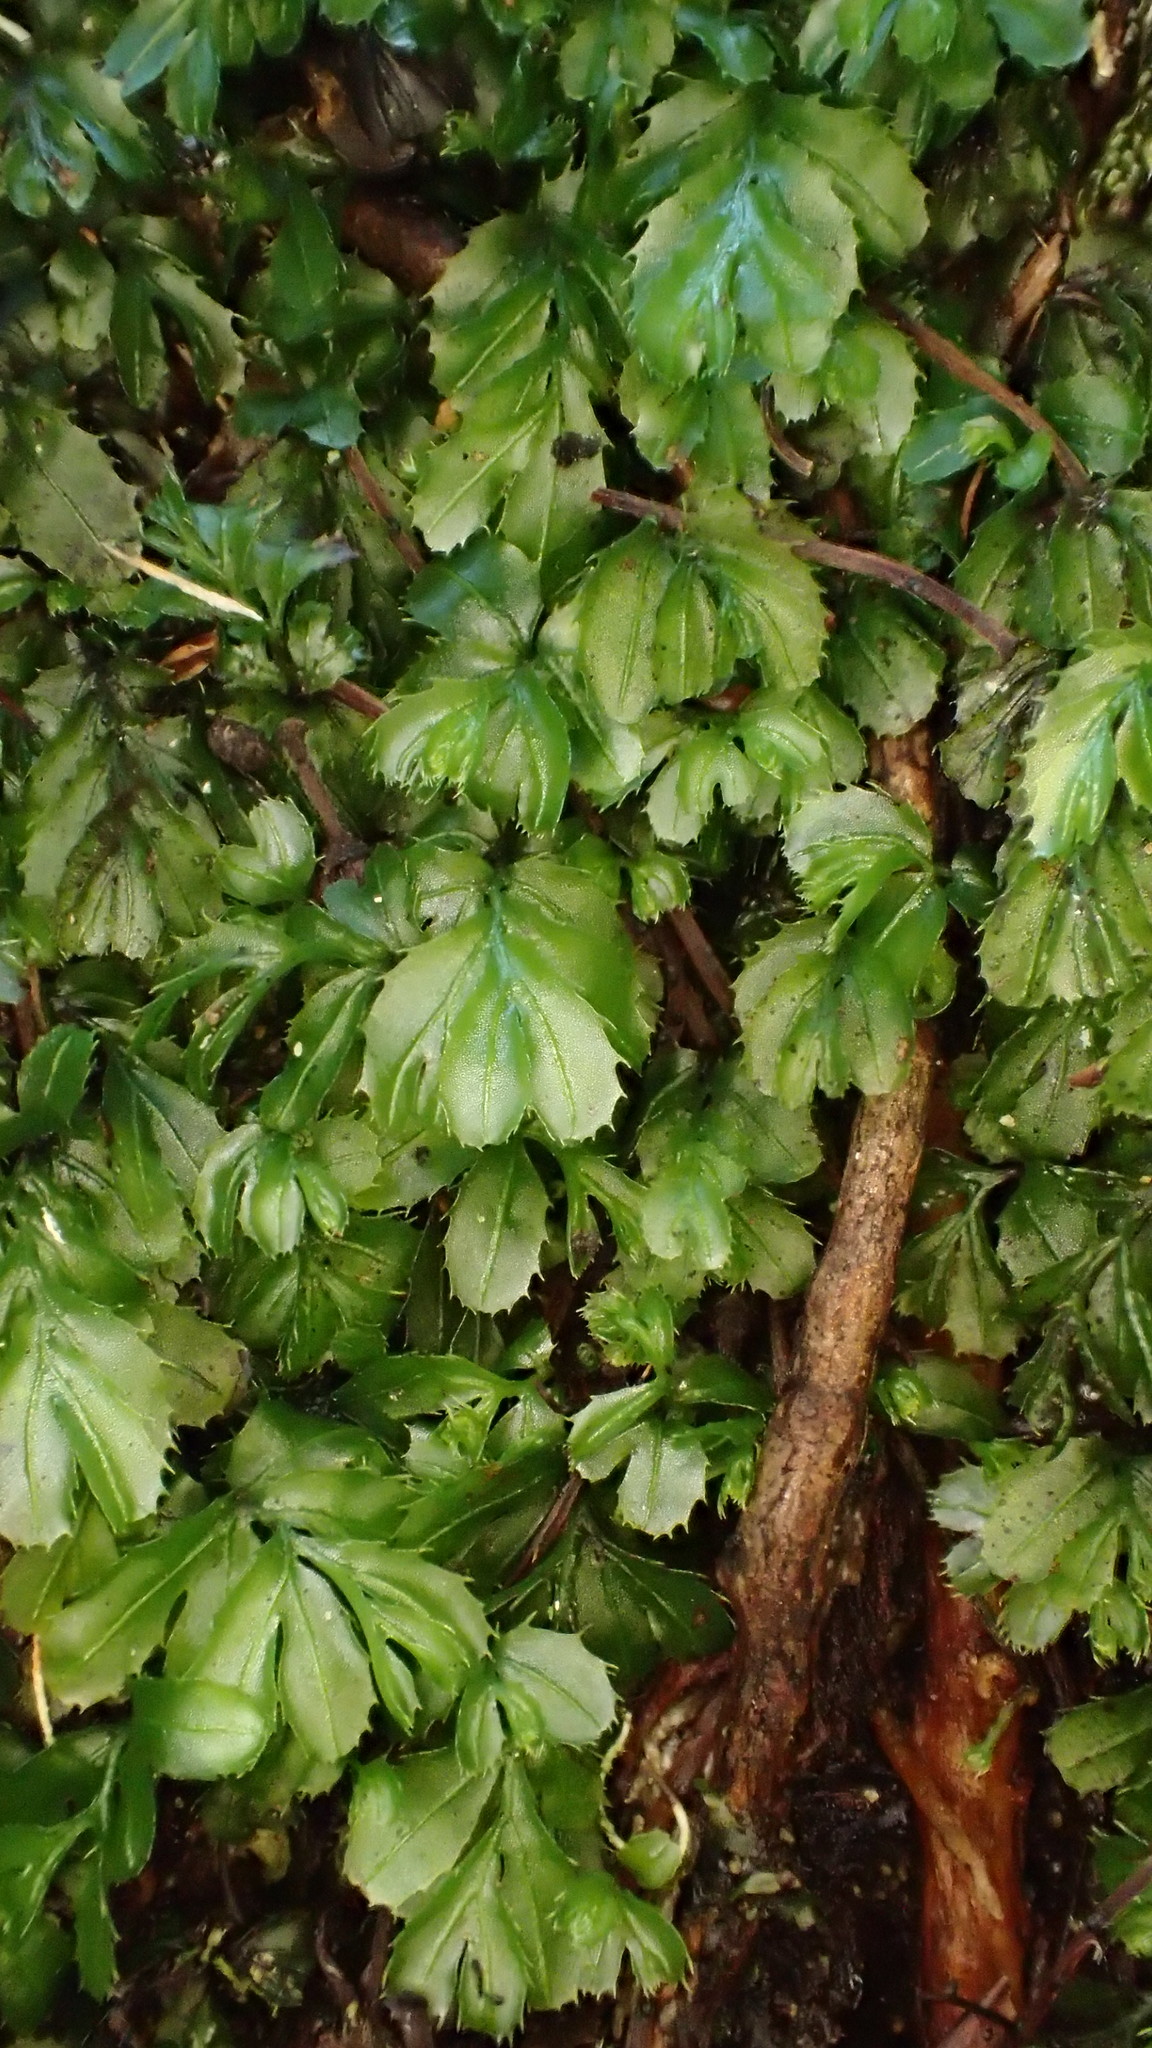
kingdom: Plantae
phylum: Tracheophyta
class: Polypodiopsida
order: Hymenophyllales
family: Hymenophyllaceae
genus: Hymenophyllum
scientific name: Hymenophyllum minimum
